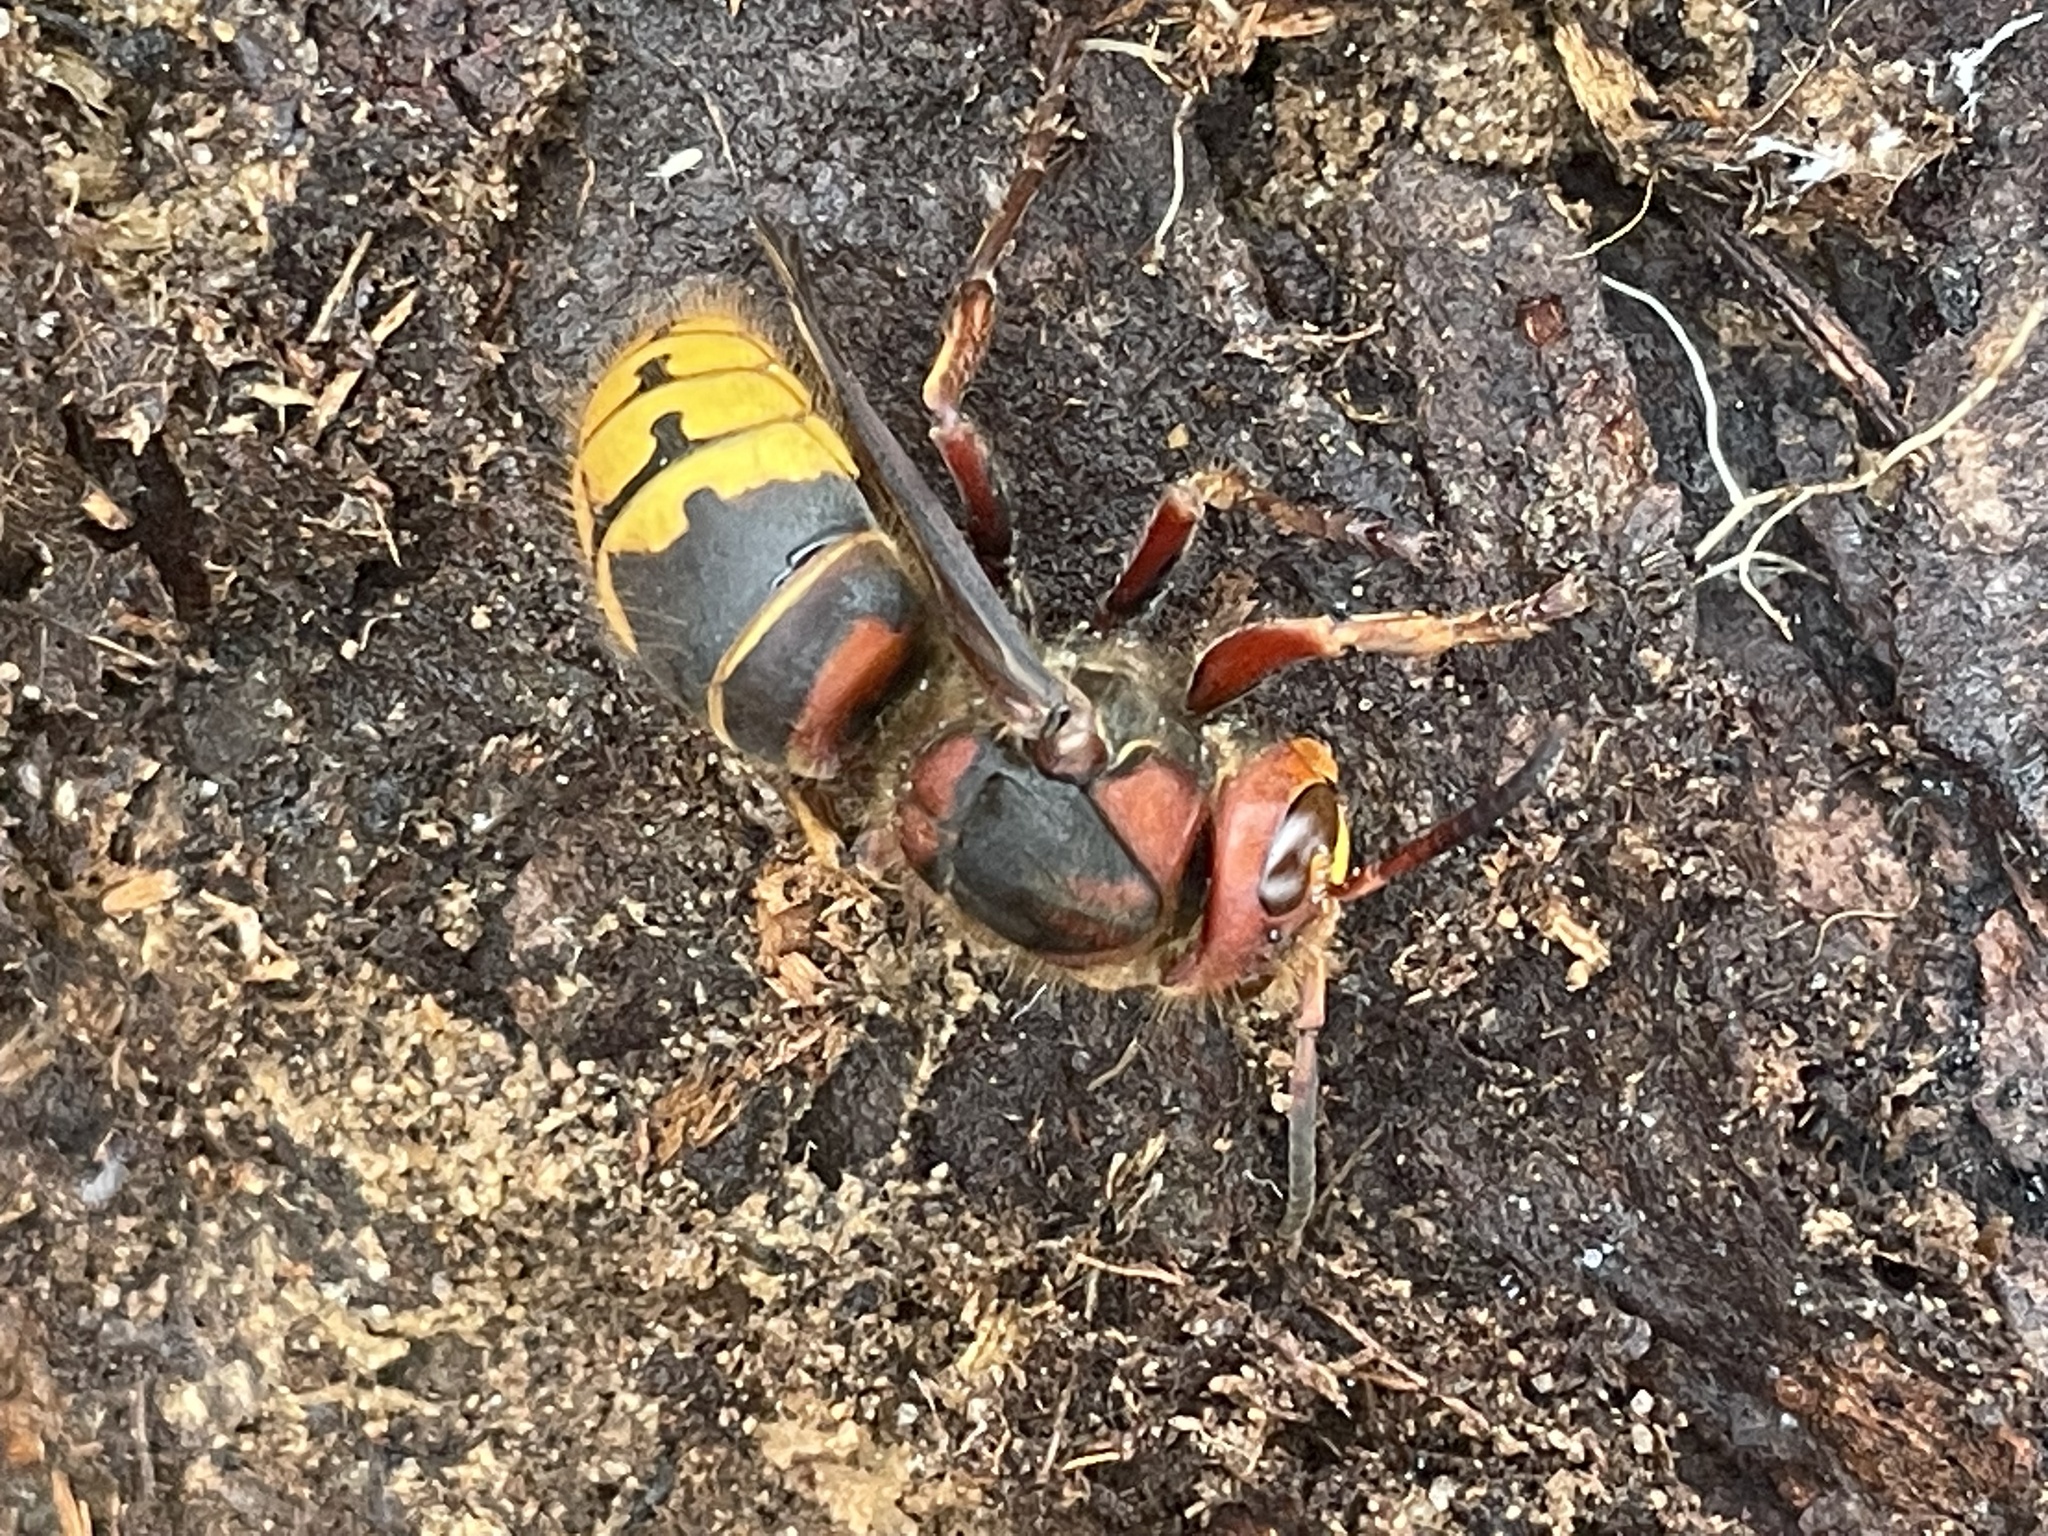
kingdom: Animalia
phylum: Arthropoda
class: Insecta
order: Hymenoptera
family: Vespidae
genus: Vespa
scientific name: Vespa crabro
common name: Hornet
